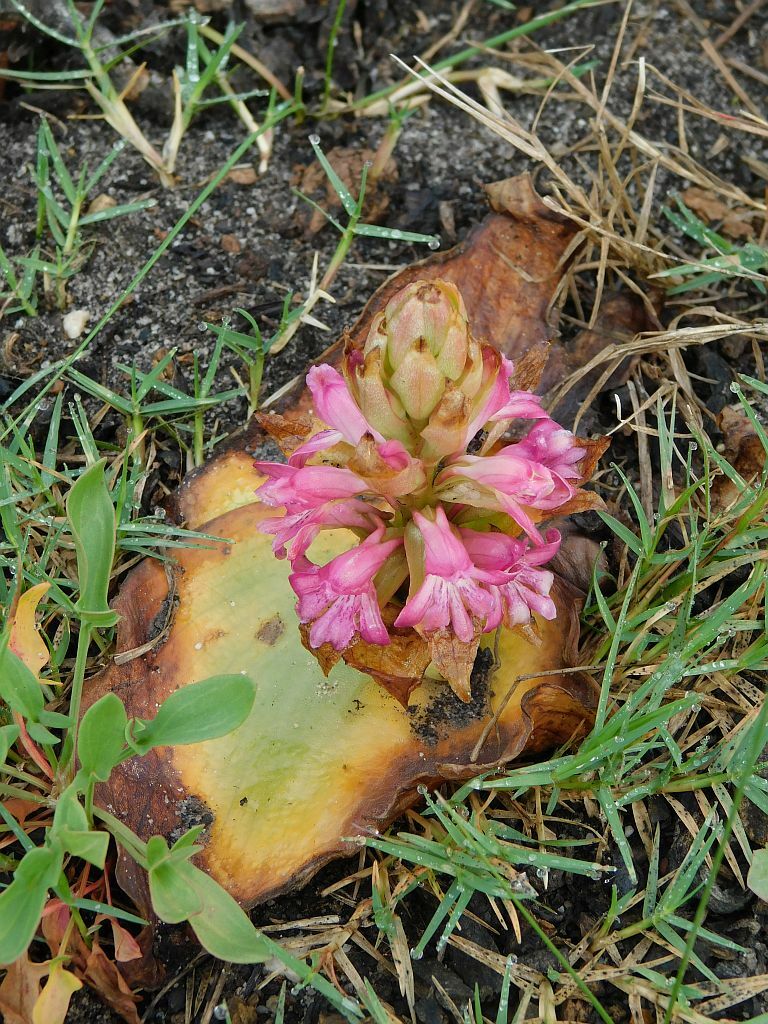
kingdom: Plantae
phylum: Tracheophyta
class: Liliopsida
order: Asparagales
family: Orchidaceae
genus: Satyrium
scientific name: Satyrium erectum
